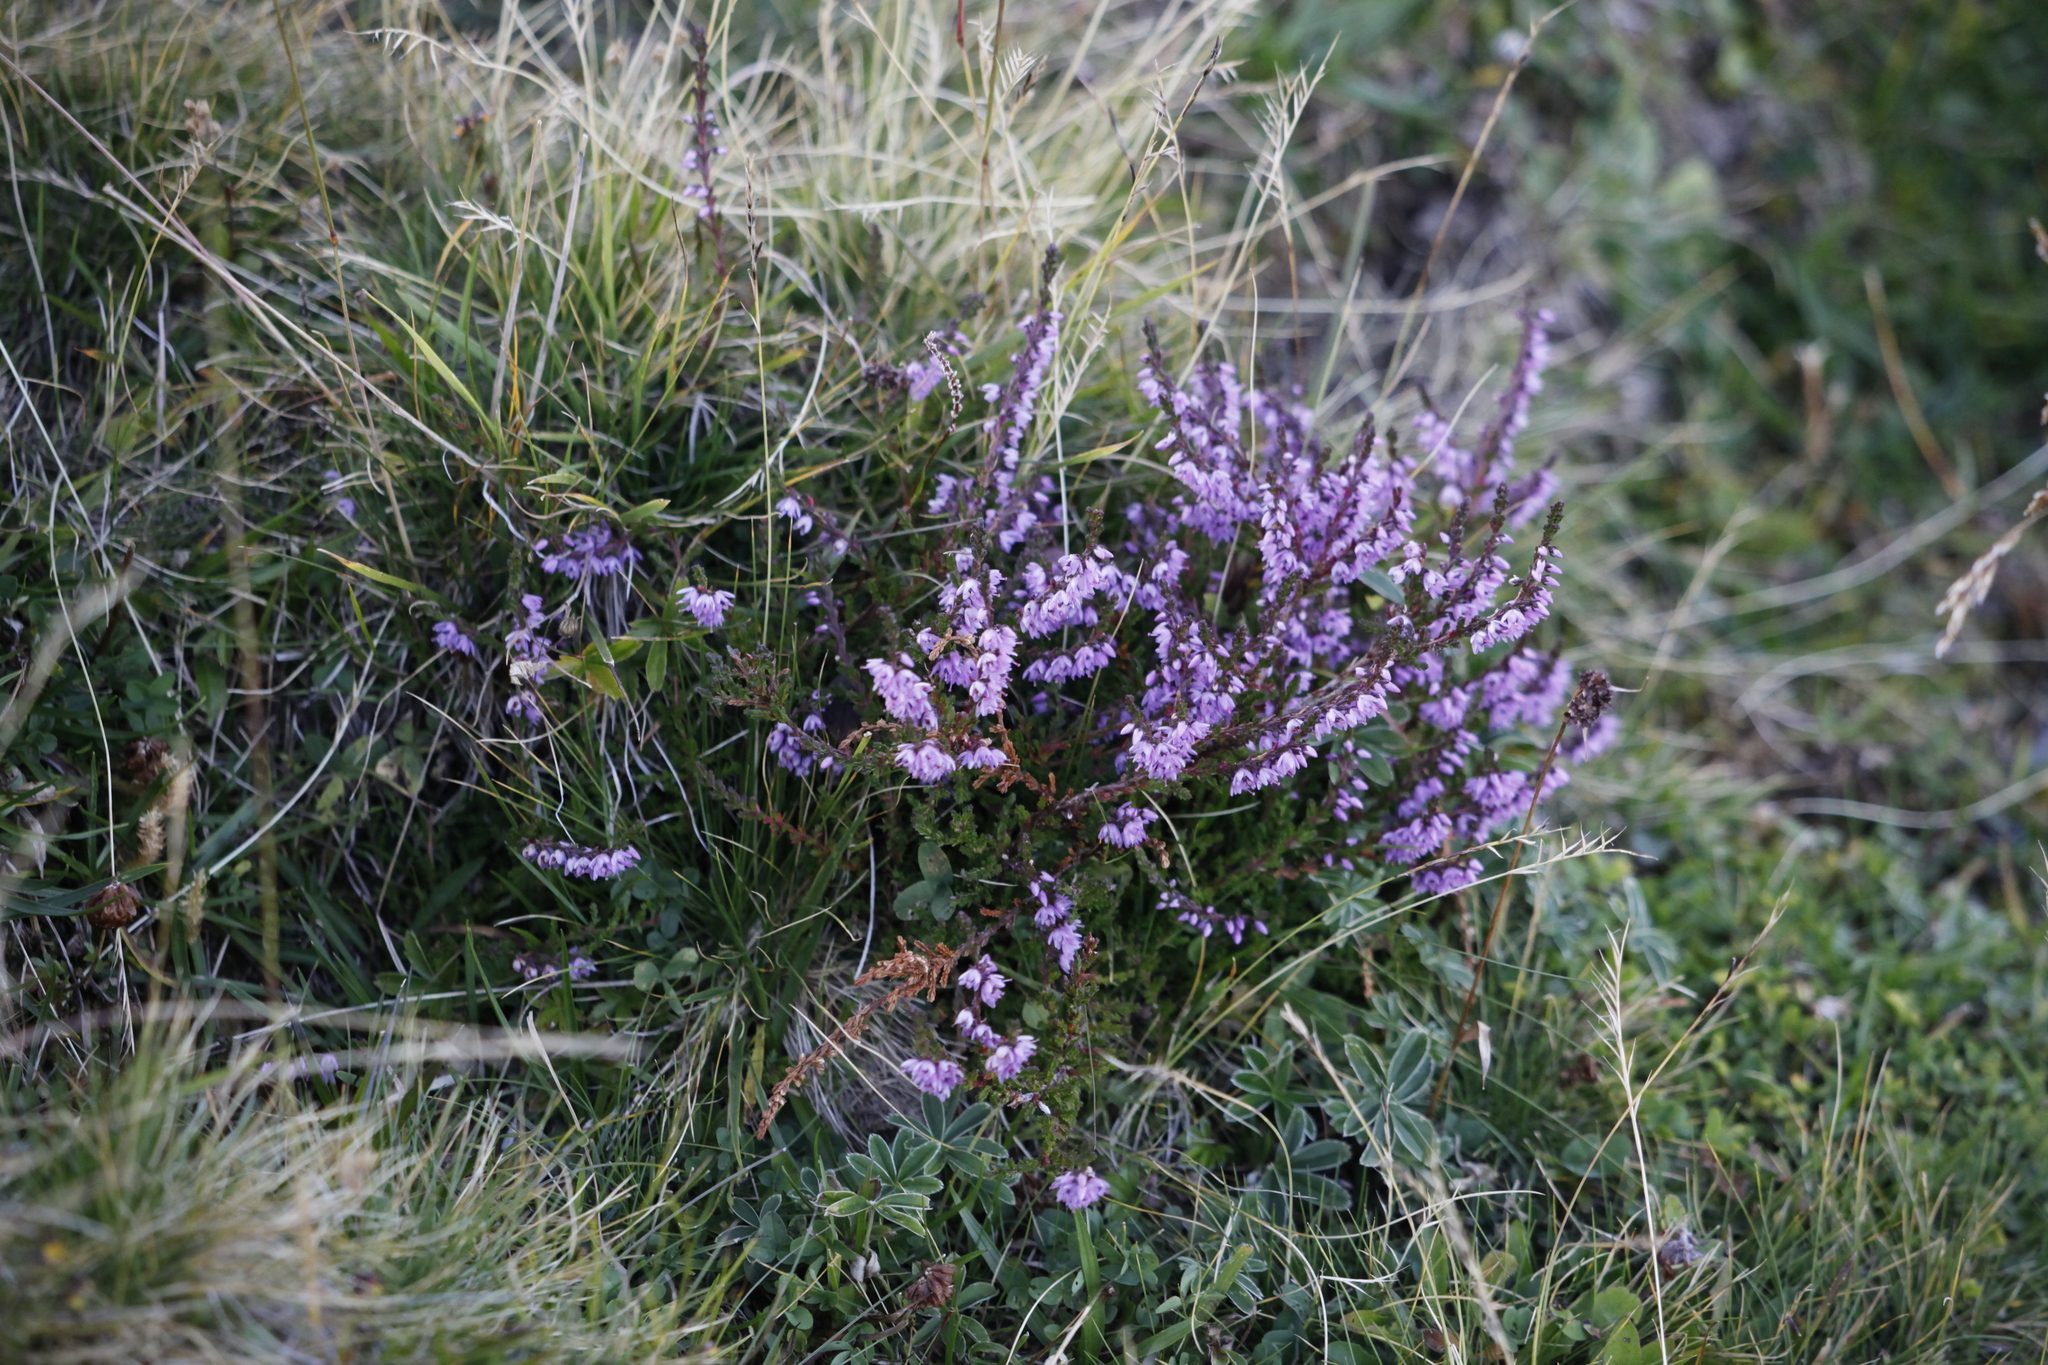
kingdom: Plantae
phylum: Tracheophyta
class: Magnoliopsida
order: Ericales
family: Ericaceae
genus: Calluna
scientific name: Calluna vulgaris
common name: Heather
